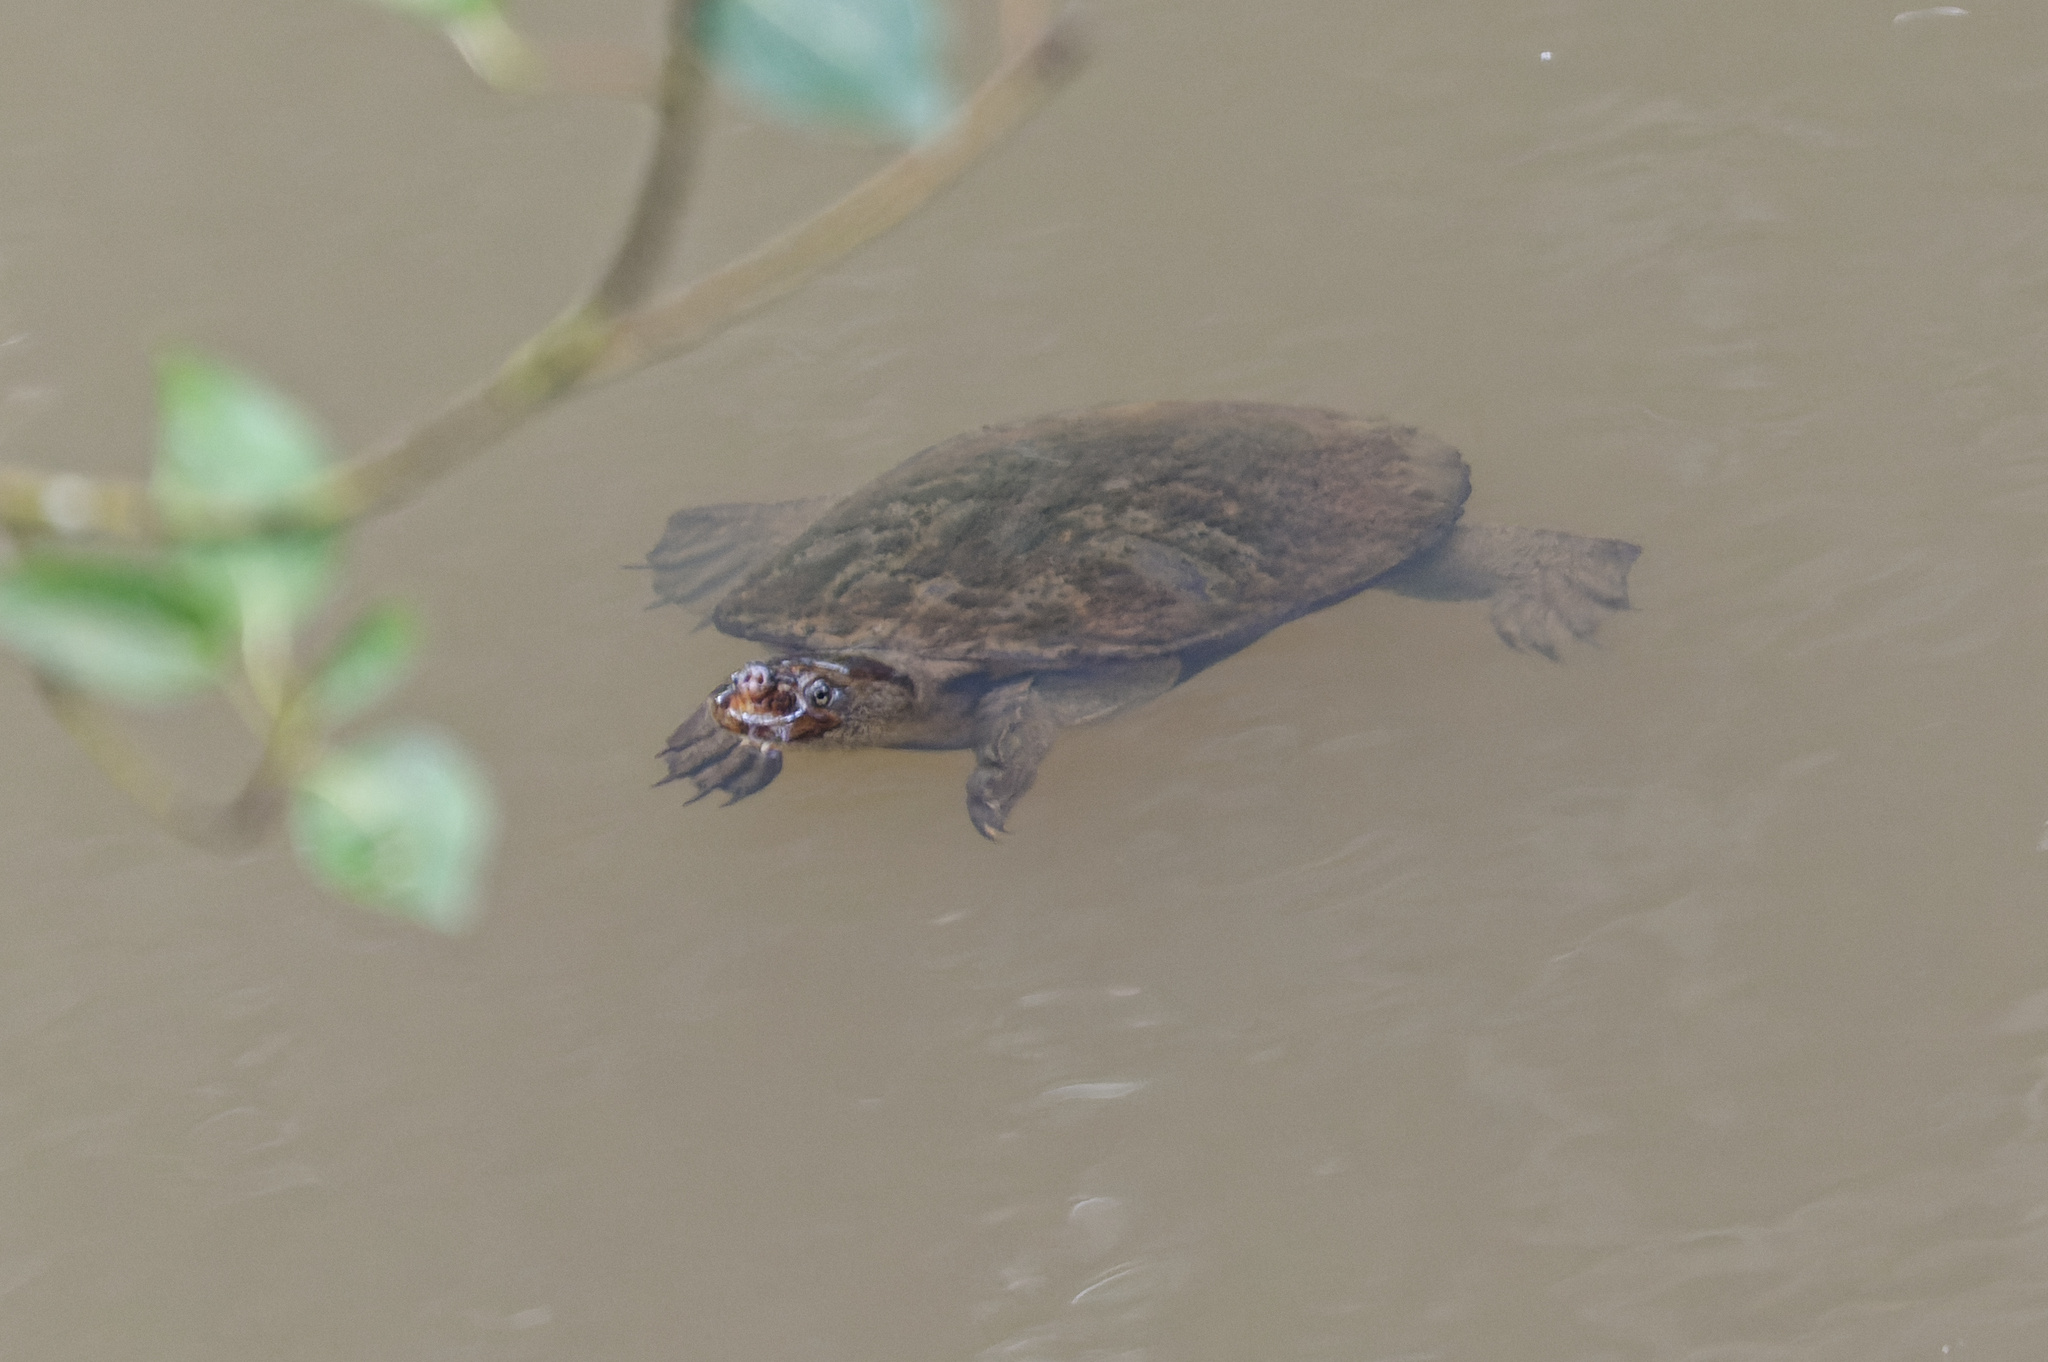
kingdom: Animalia
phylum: Chordata
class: Testudines
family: Chelidae
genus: Myuchelys
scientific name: Myuchelys latisternum
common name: Serrated snapping turtle
